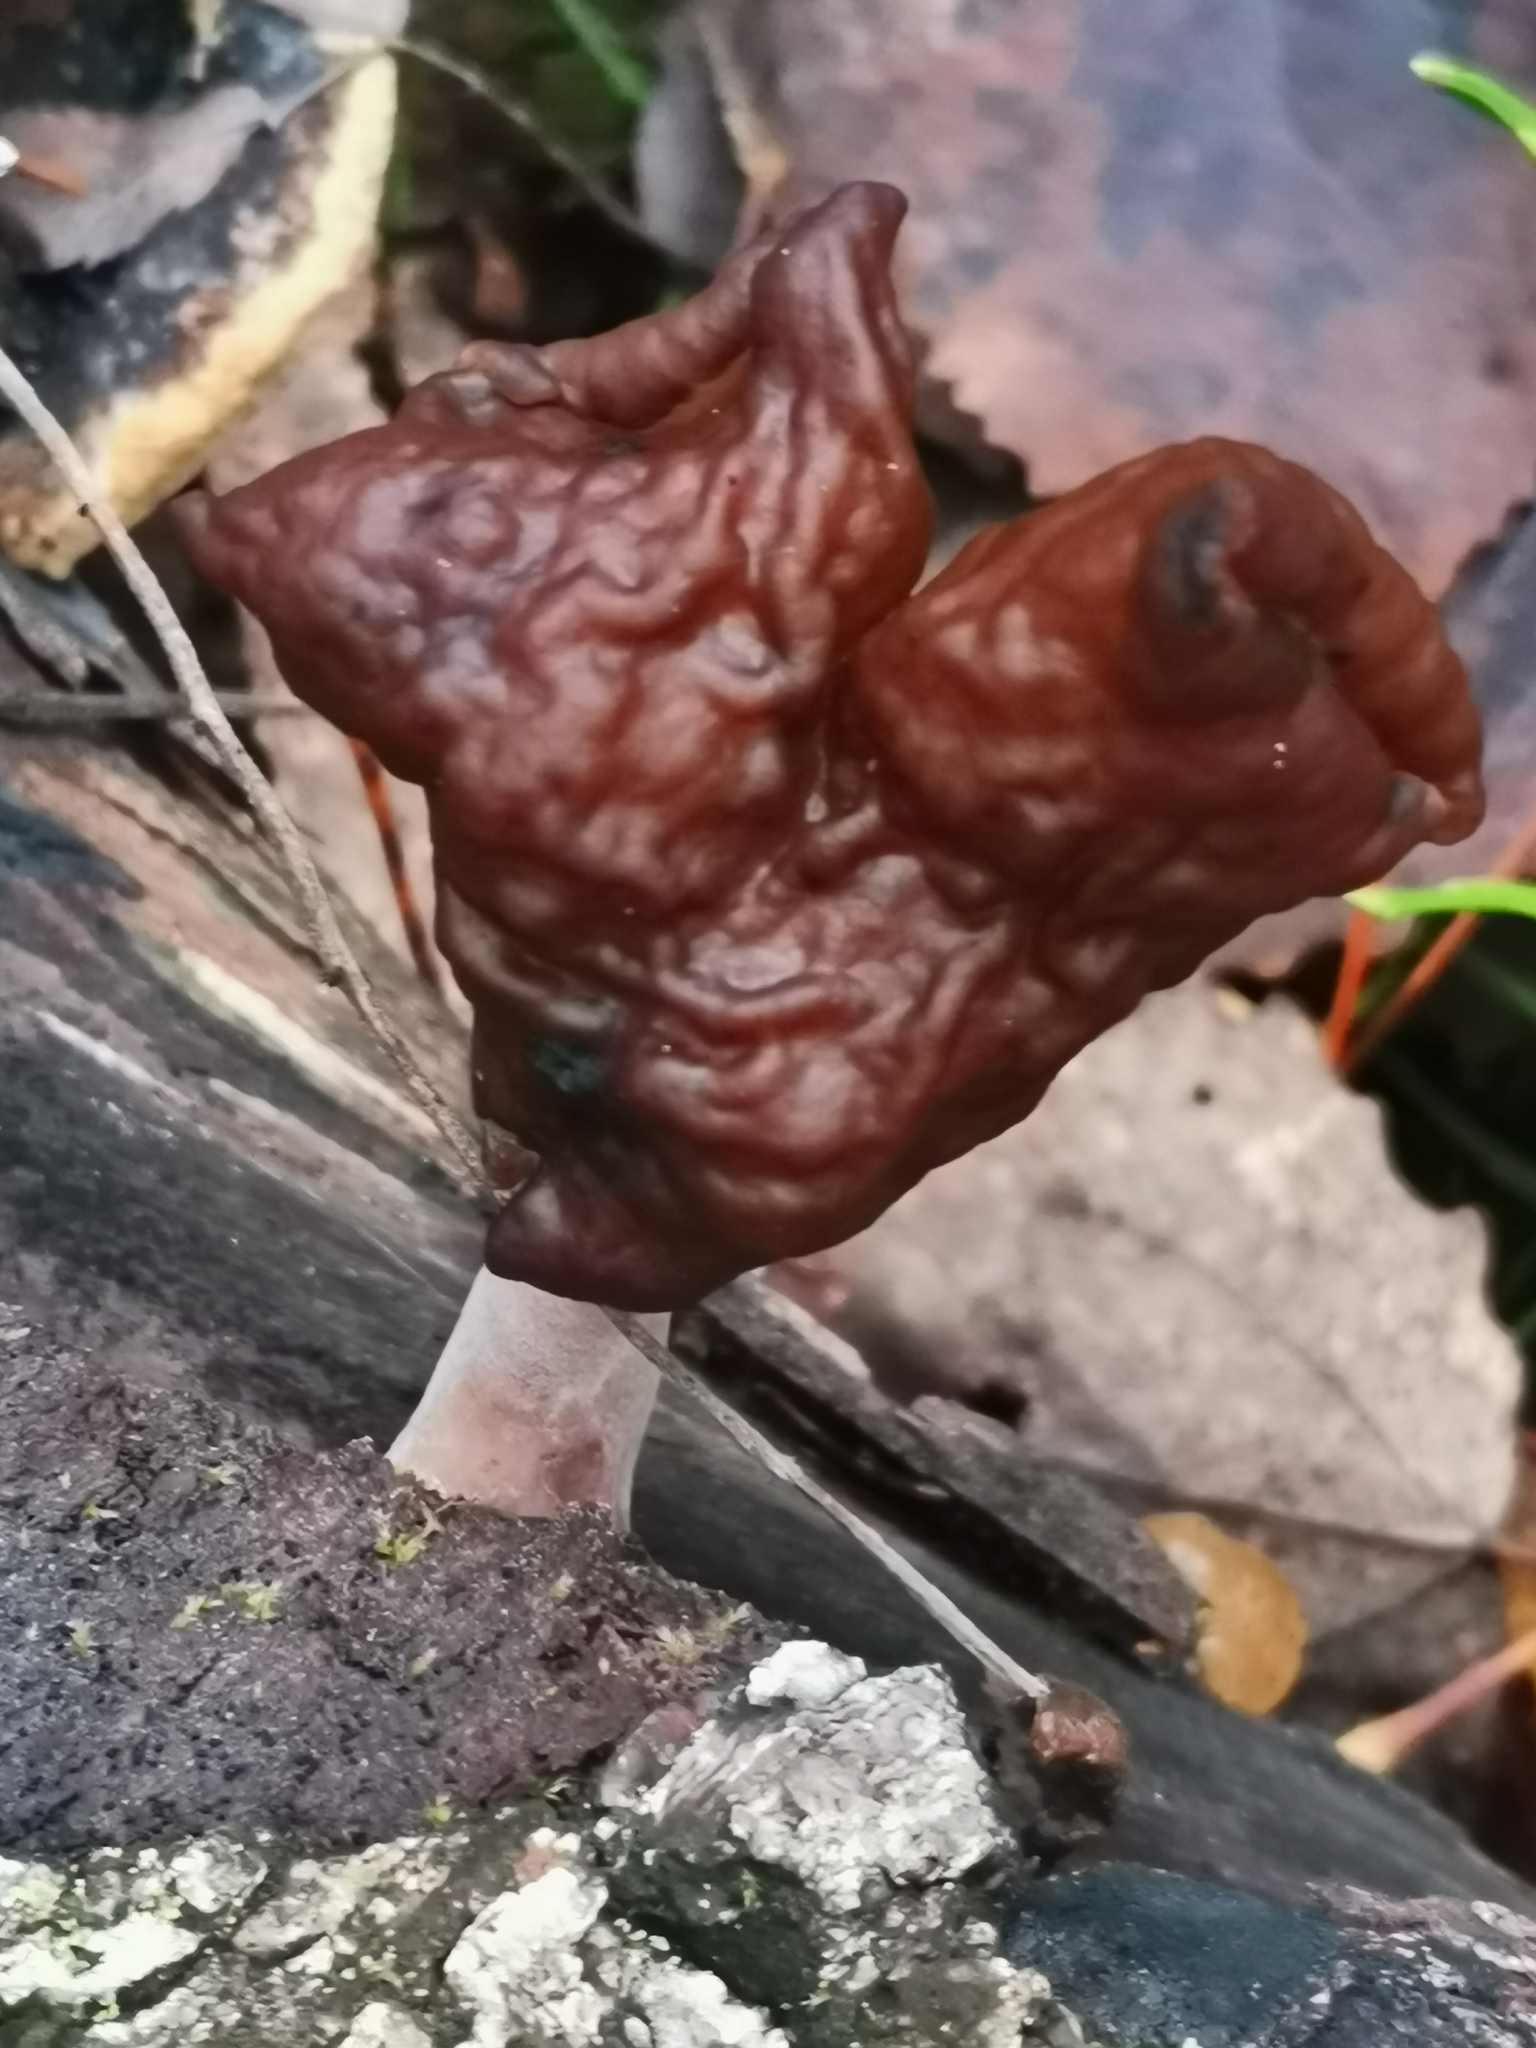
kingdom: Fungi
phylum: Ascomycota
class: Pezizomycetes
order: Pezizales
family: Discinaceae
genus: Gyromitra
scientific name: Gyromitra infula
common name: Pouched false morel
